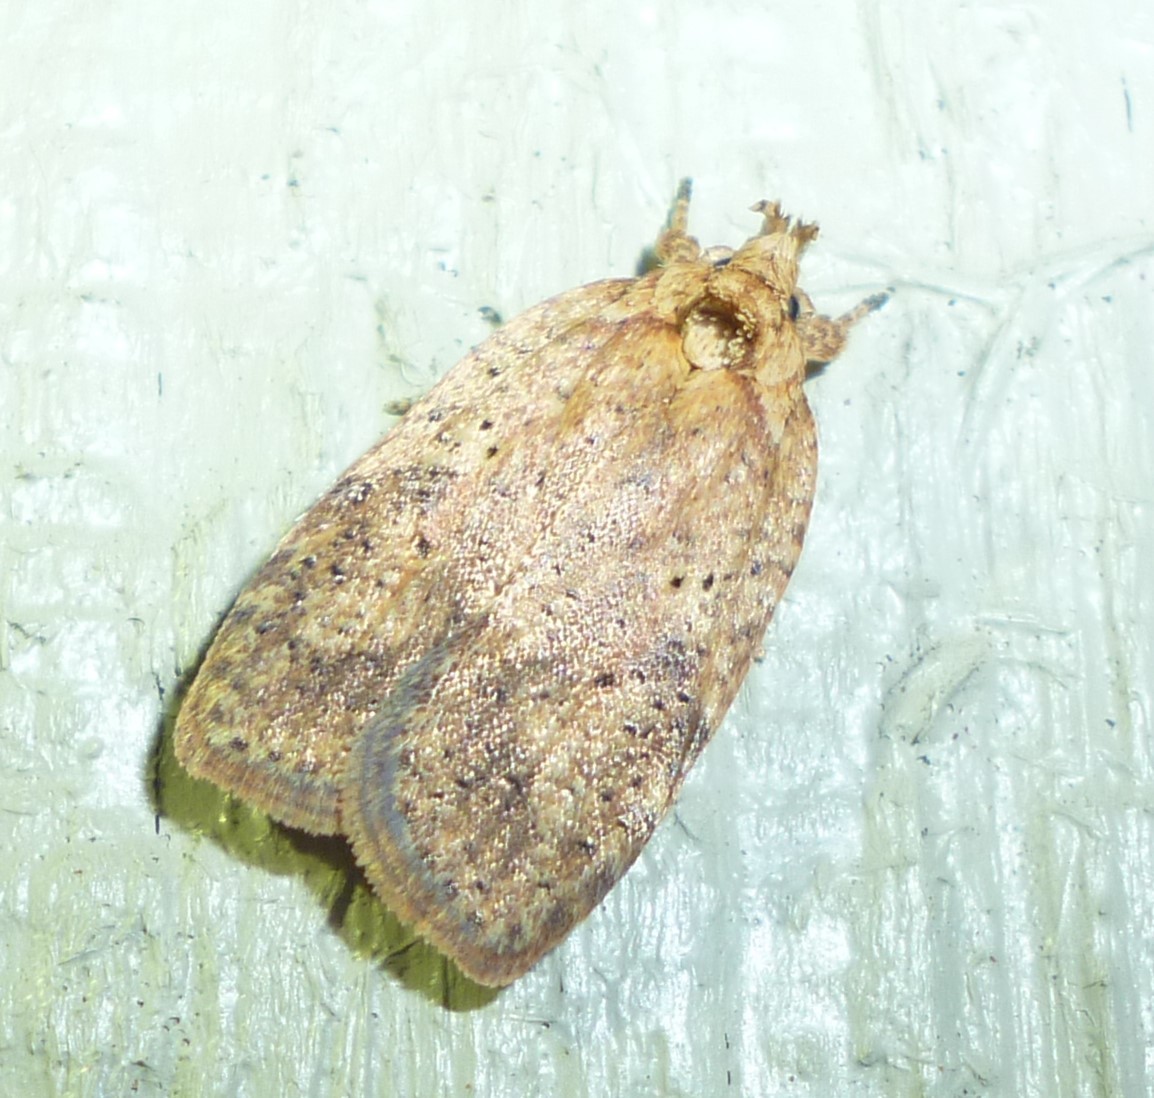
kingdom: Animalia
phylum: Arthropoda
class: Insecta
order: Lepidoptera
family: Depressariidae
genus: Agonopterix
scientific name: Agonopterix thelmae
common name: Thelma's agonopterix moth
